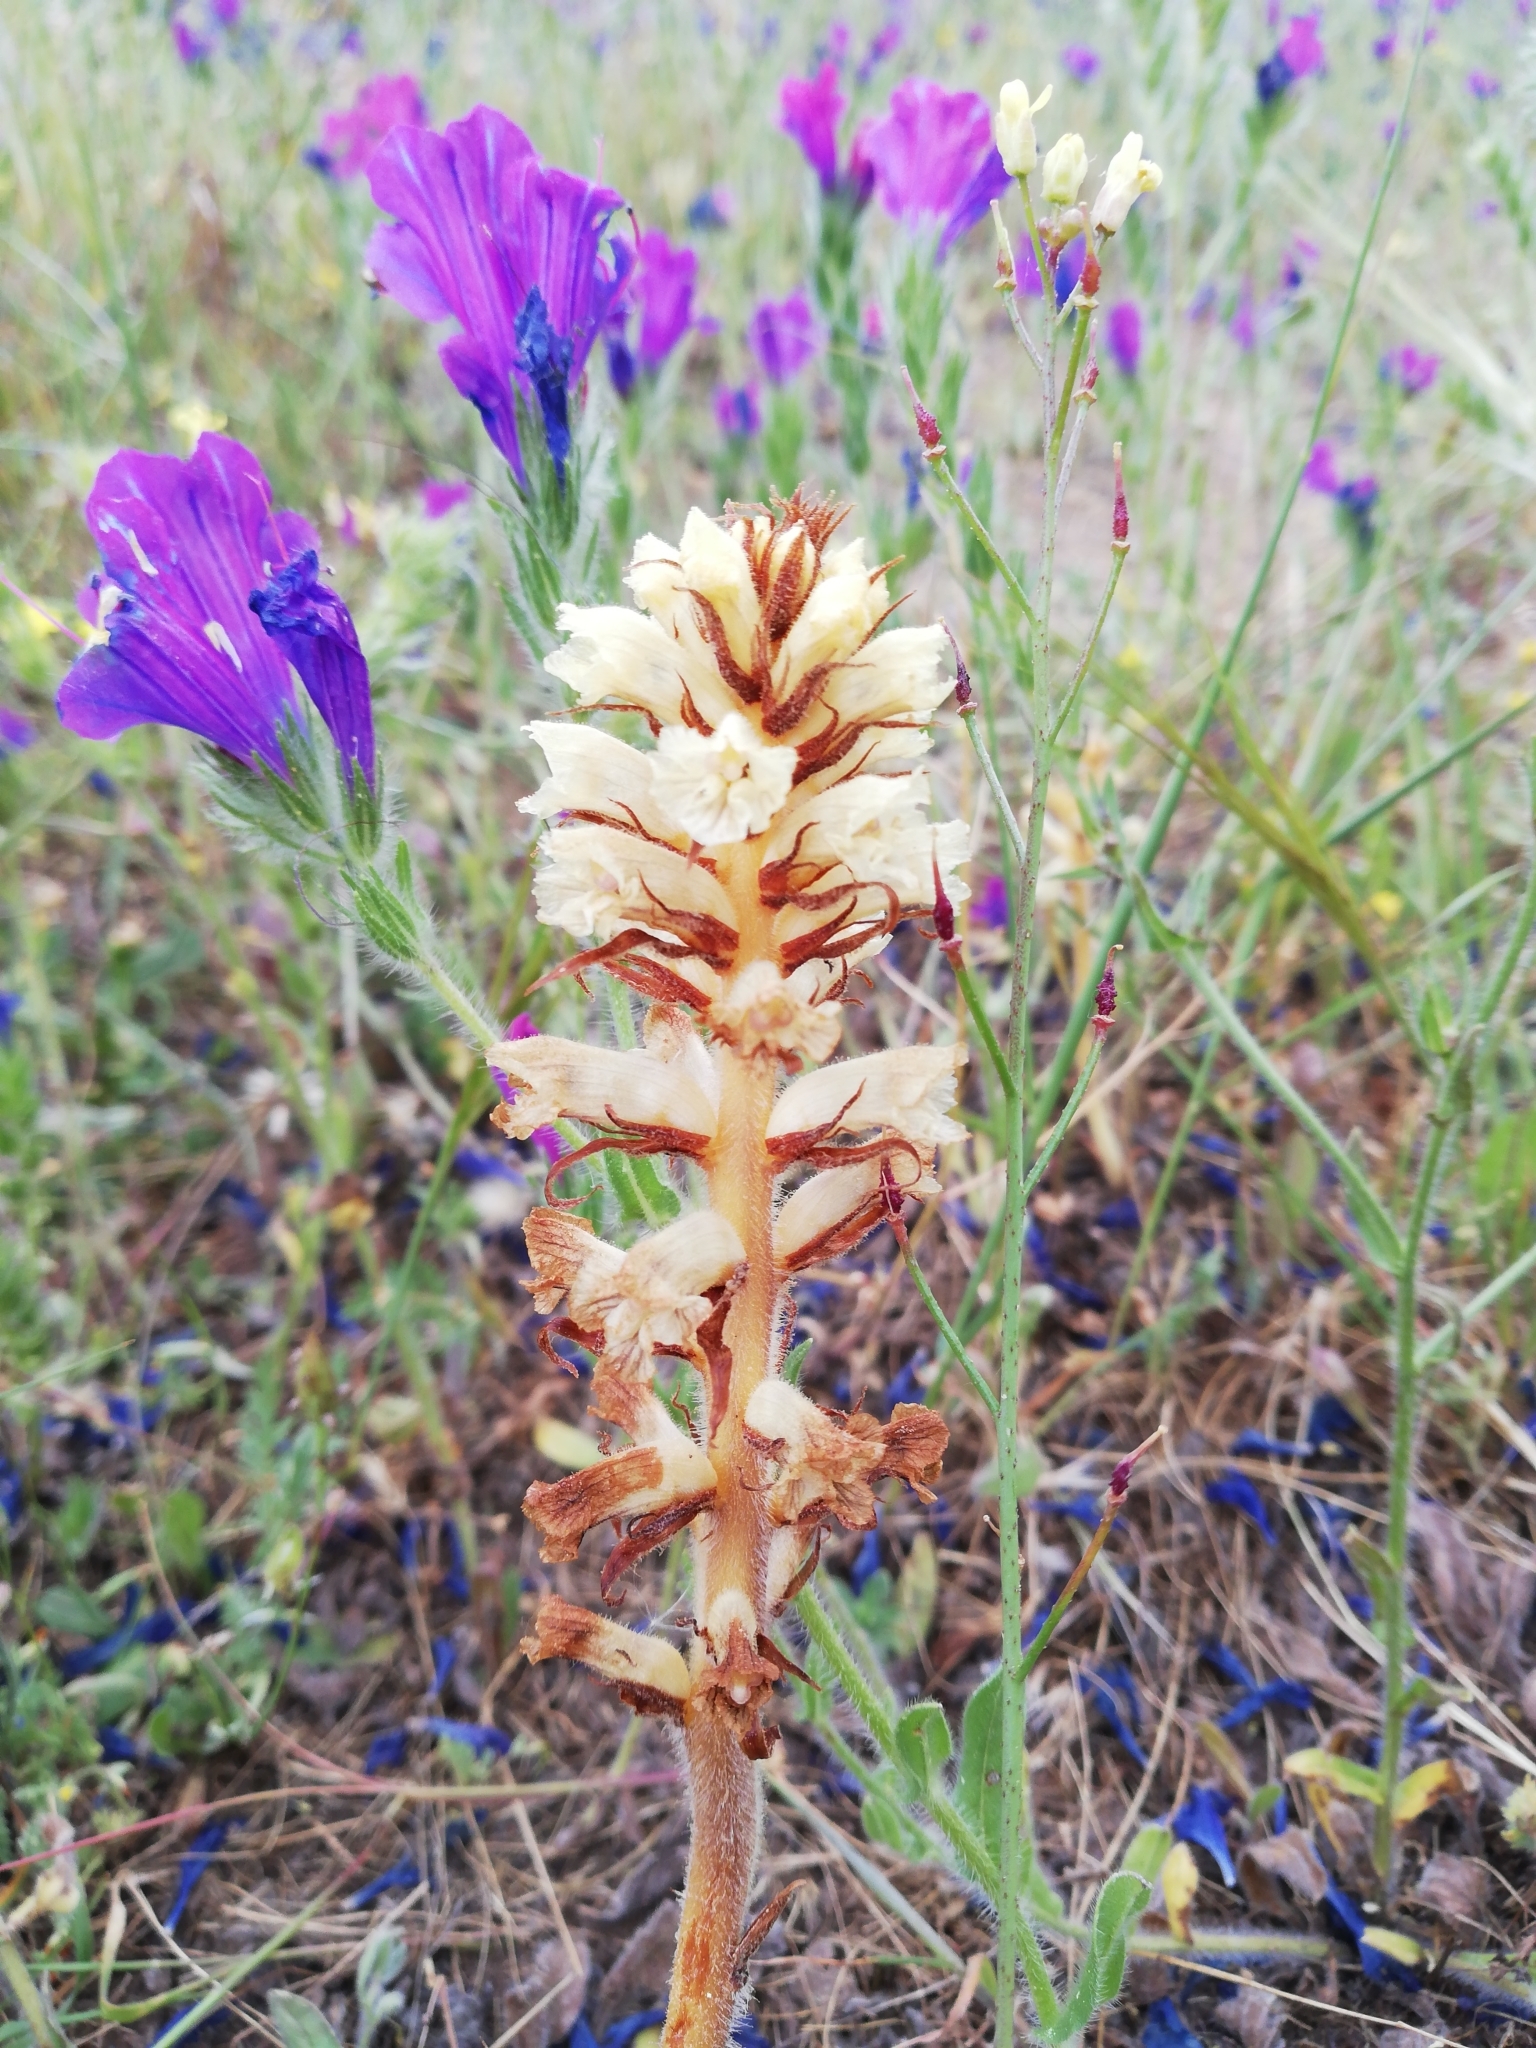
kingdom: Plantae
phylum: Tracheophyta
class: Magnoliopsida
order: Lamiales
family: Orobanchaceae
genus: Orobanche
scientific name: Orobanche minor
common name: Common broomrape
